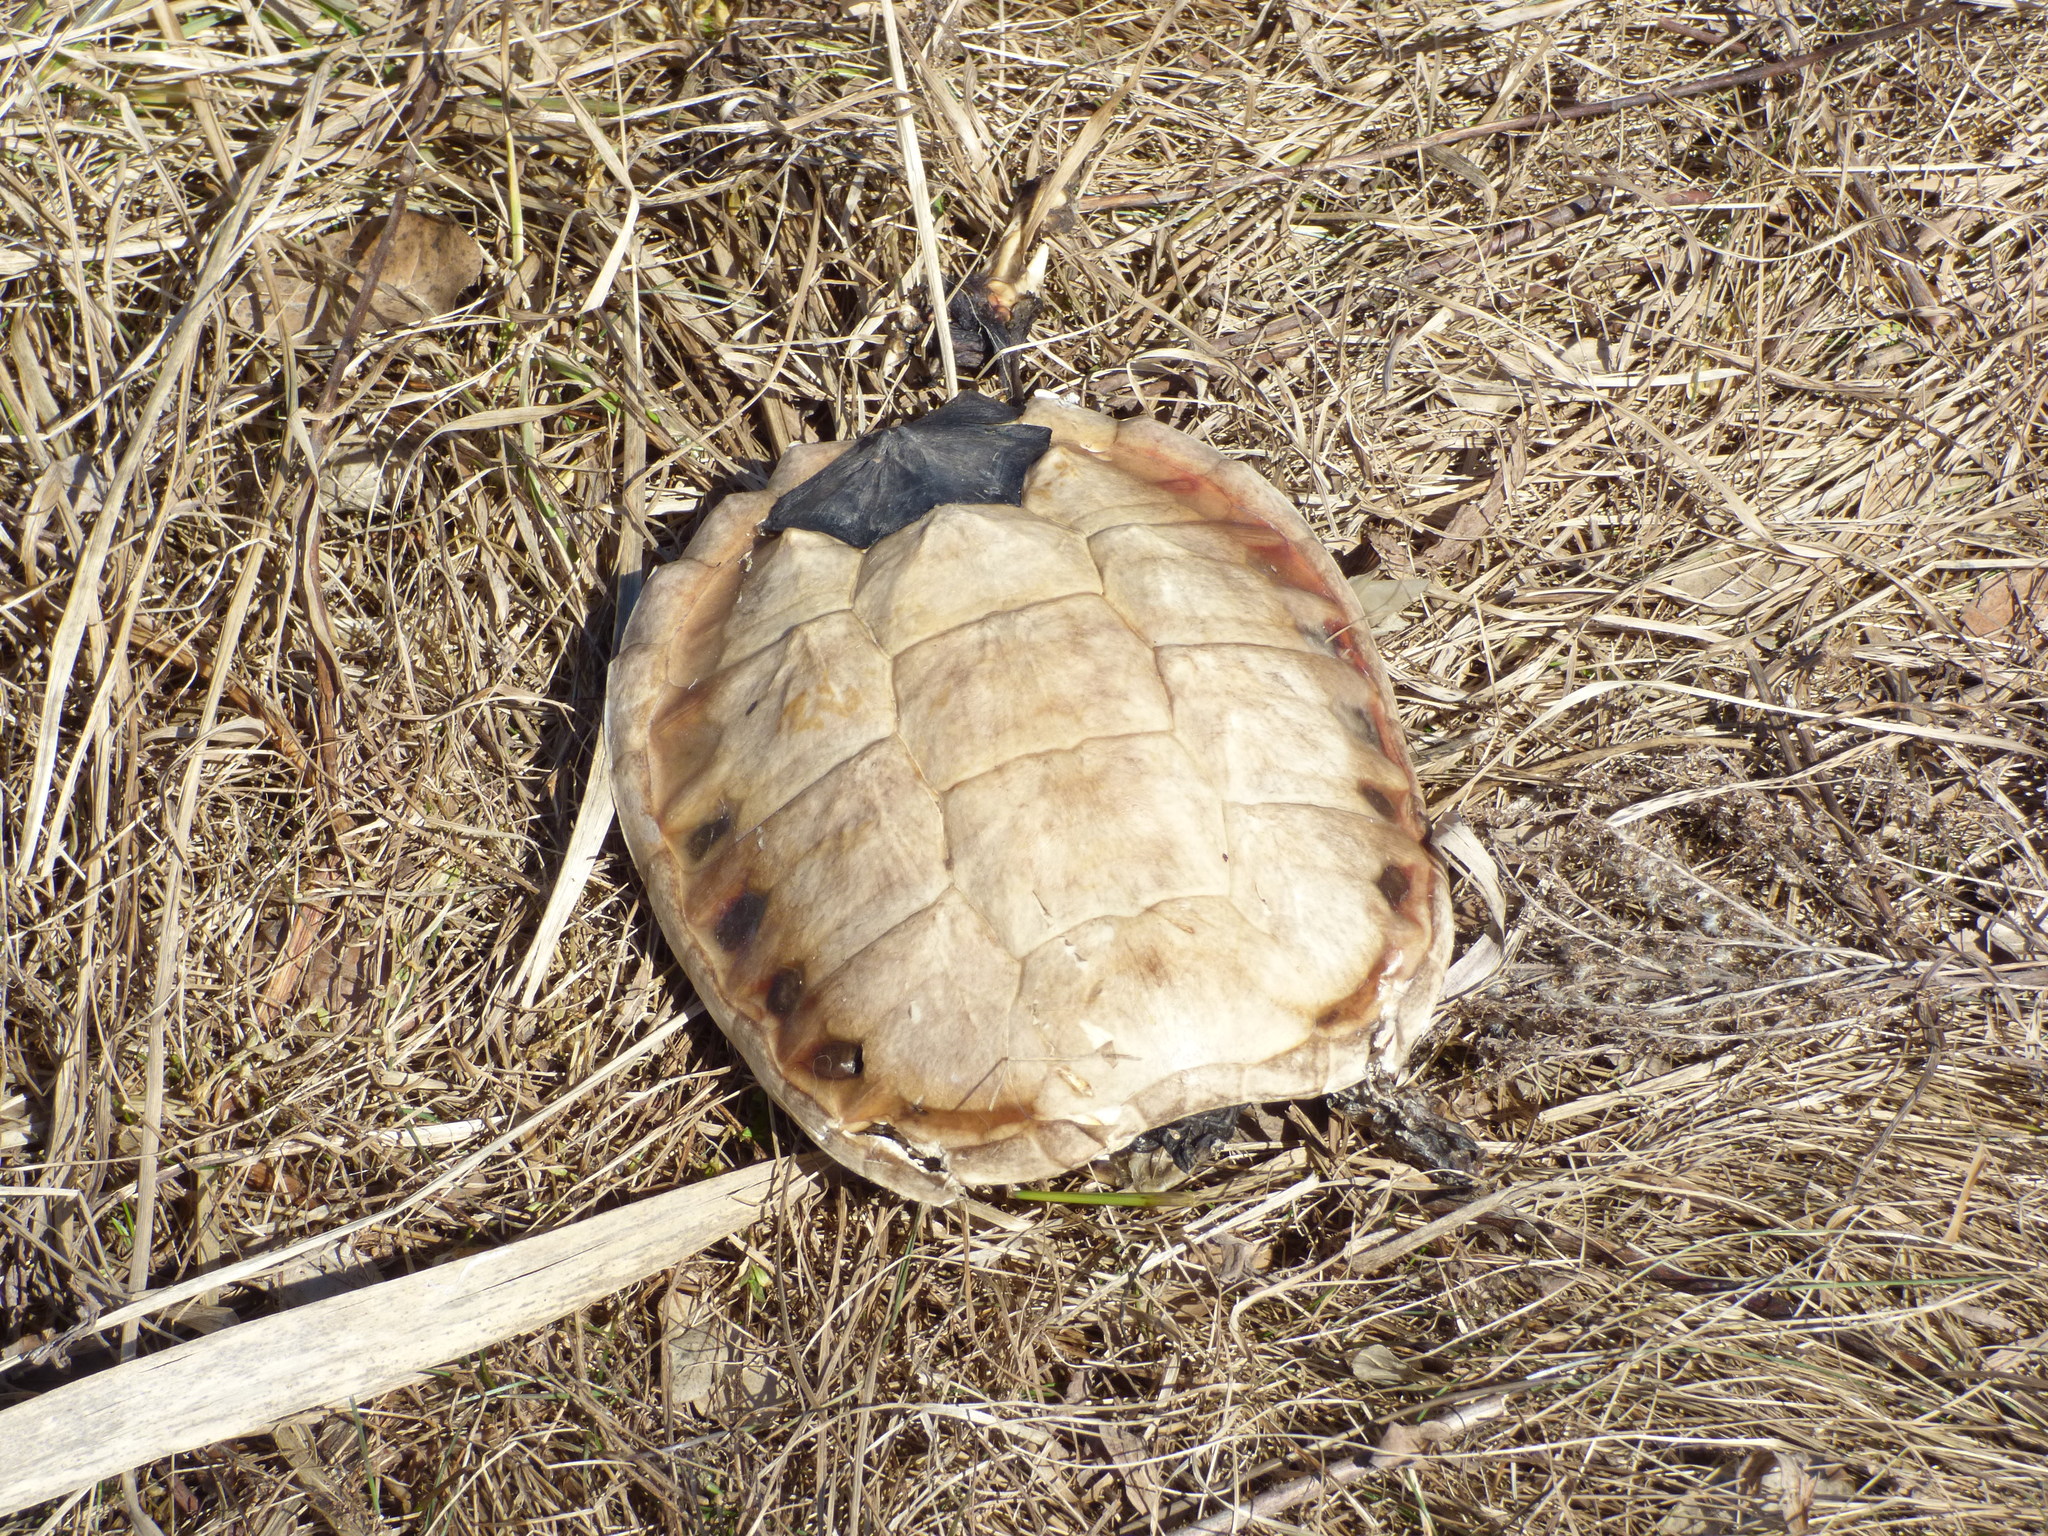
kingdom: Animalia
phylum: Chordata
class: Testudines
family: Chelydridae
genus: Chelydra
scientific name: Chelydra serpentina
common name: Common snapping turtle
